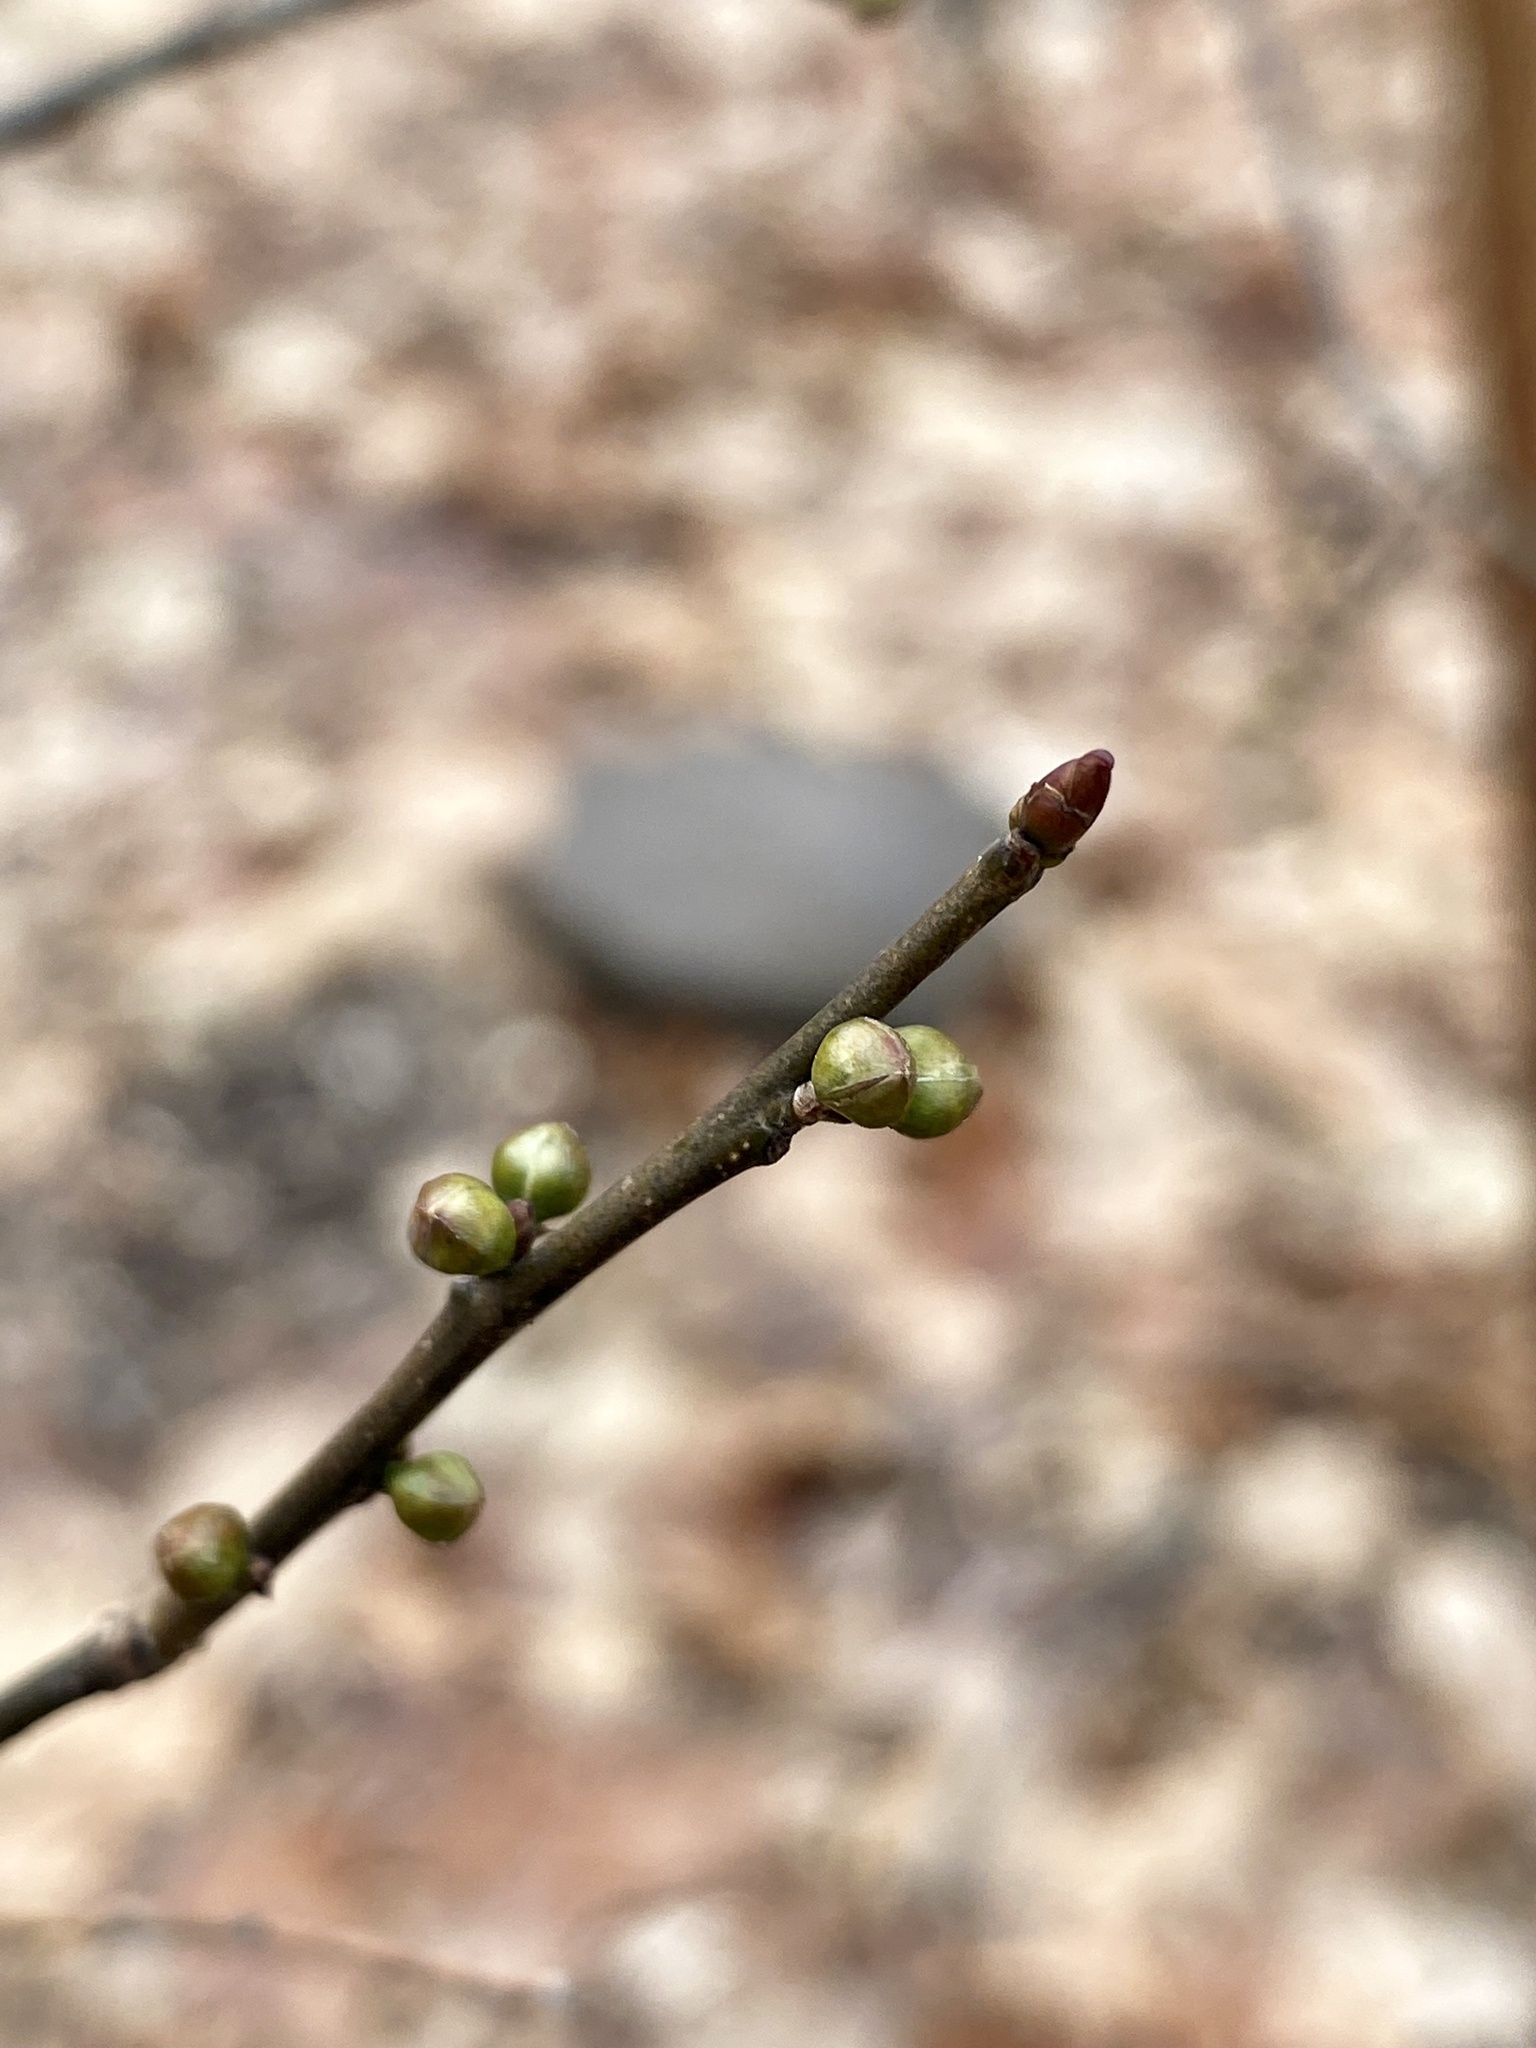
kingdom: Plantae
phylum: Tracheophyta
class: Magnoliopsida
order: Laurales
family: Lauraceae
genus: Lindera
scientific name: Lindera benzoin
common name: Spicebush
